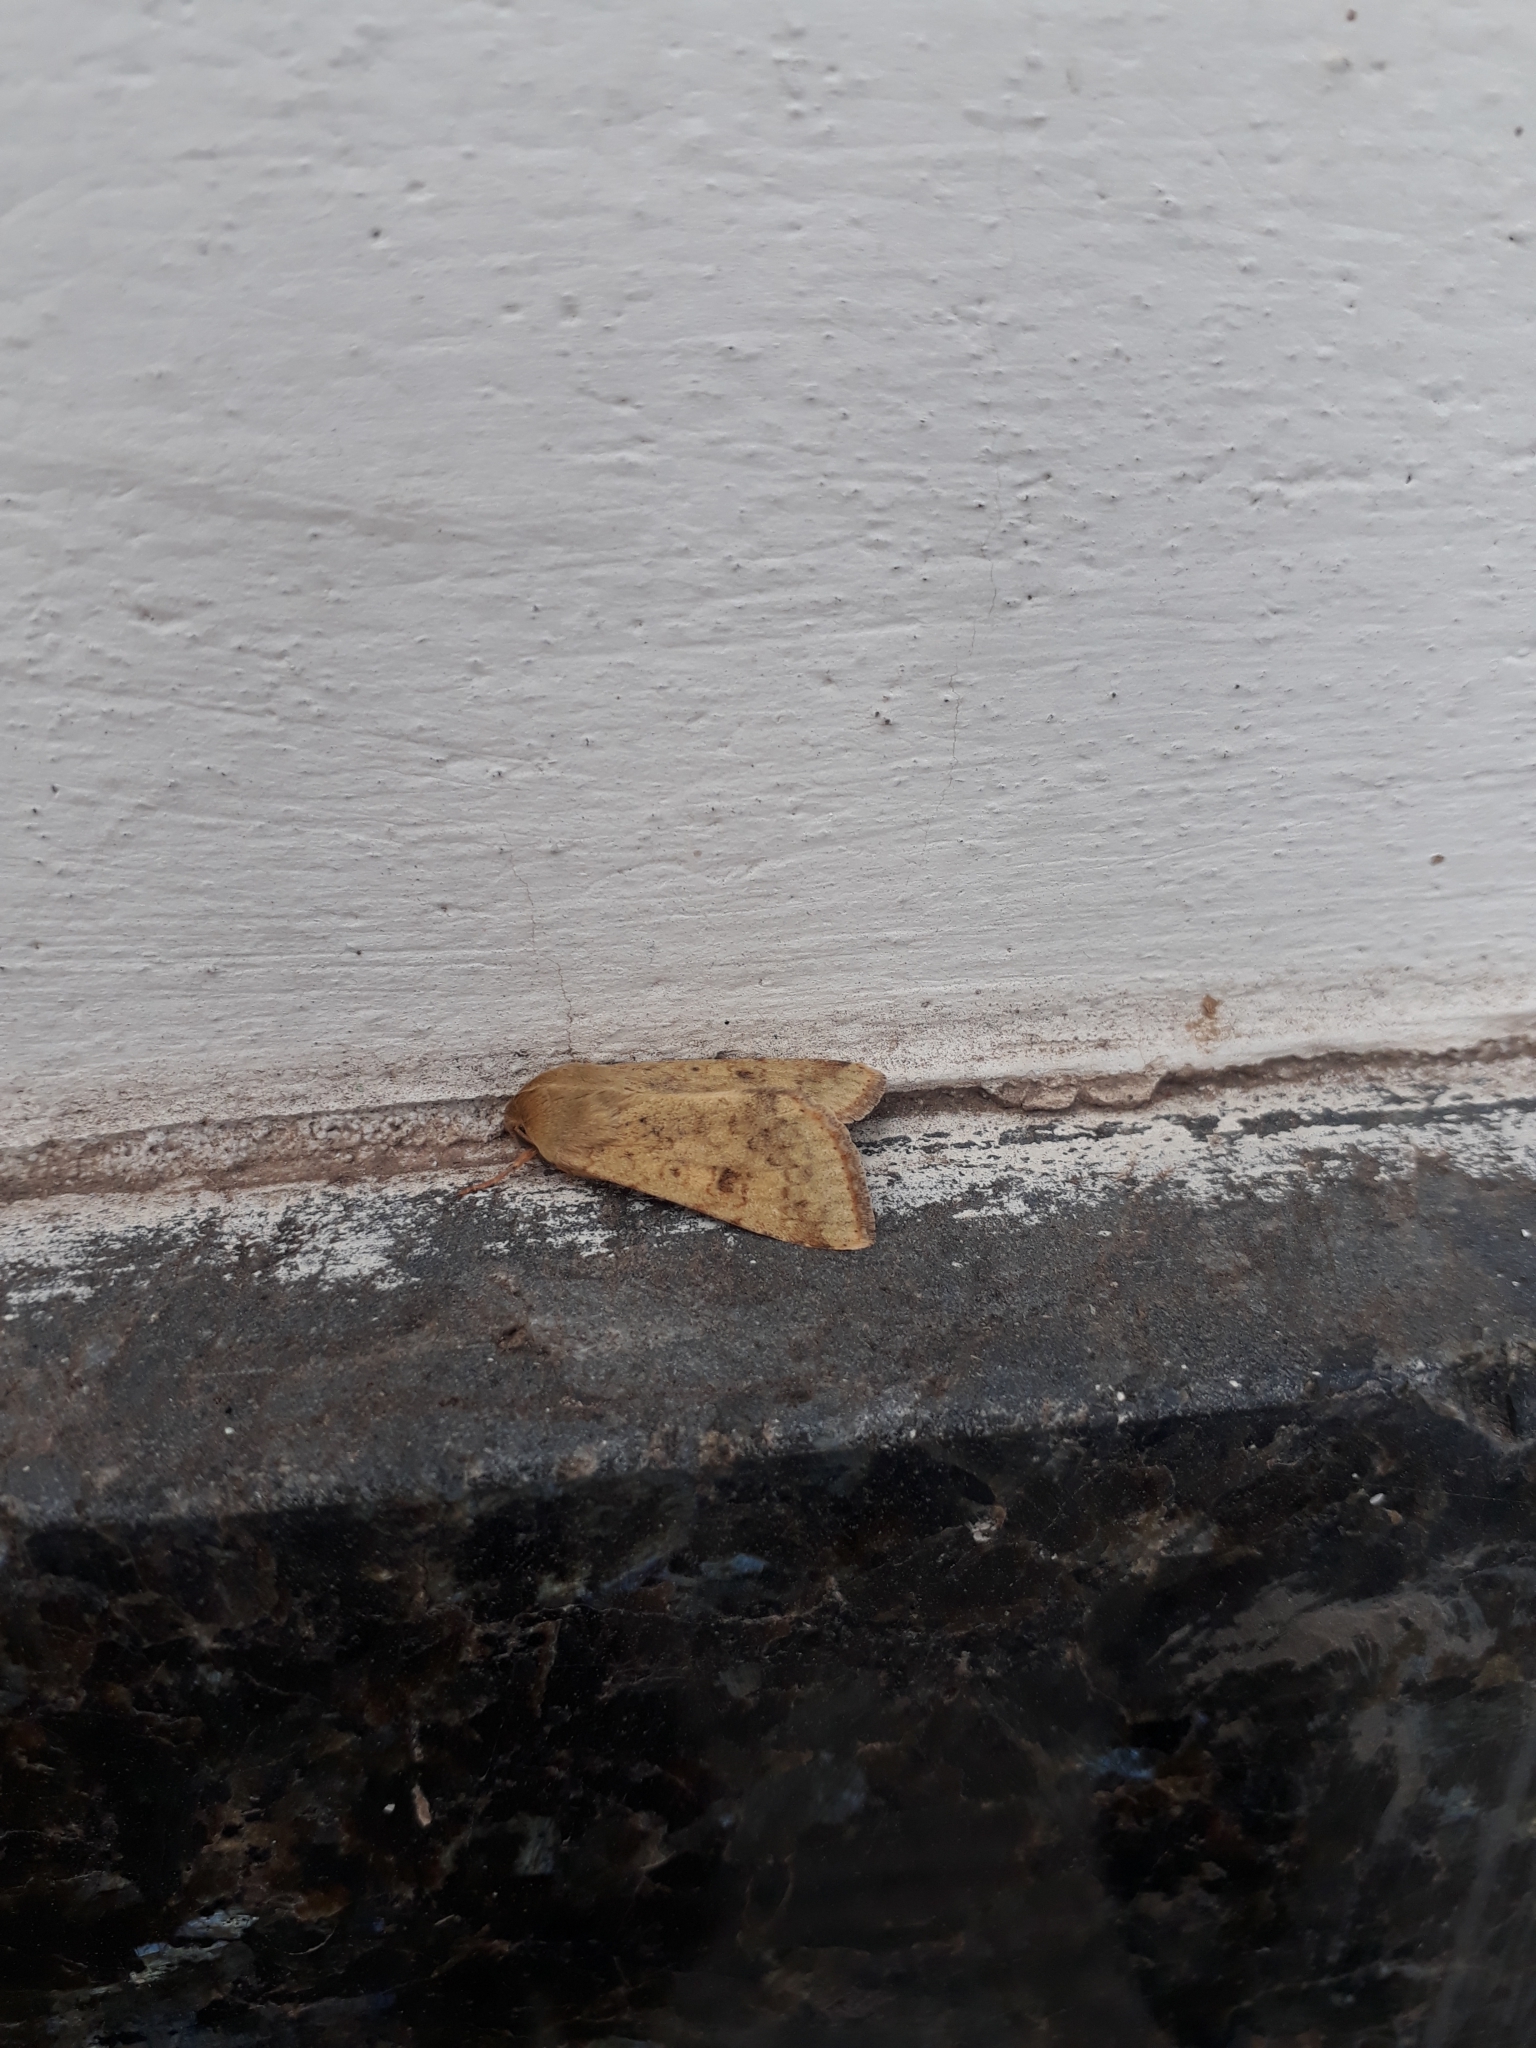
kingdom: Animalia
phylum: Arthropoda
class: Insecta
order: Lepidoptera
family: Noctuidae
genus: Helicoverpa
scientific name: Helicoverpa
